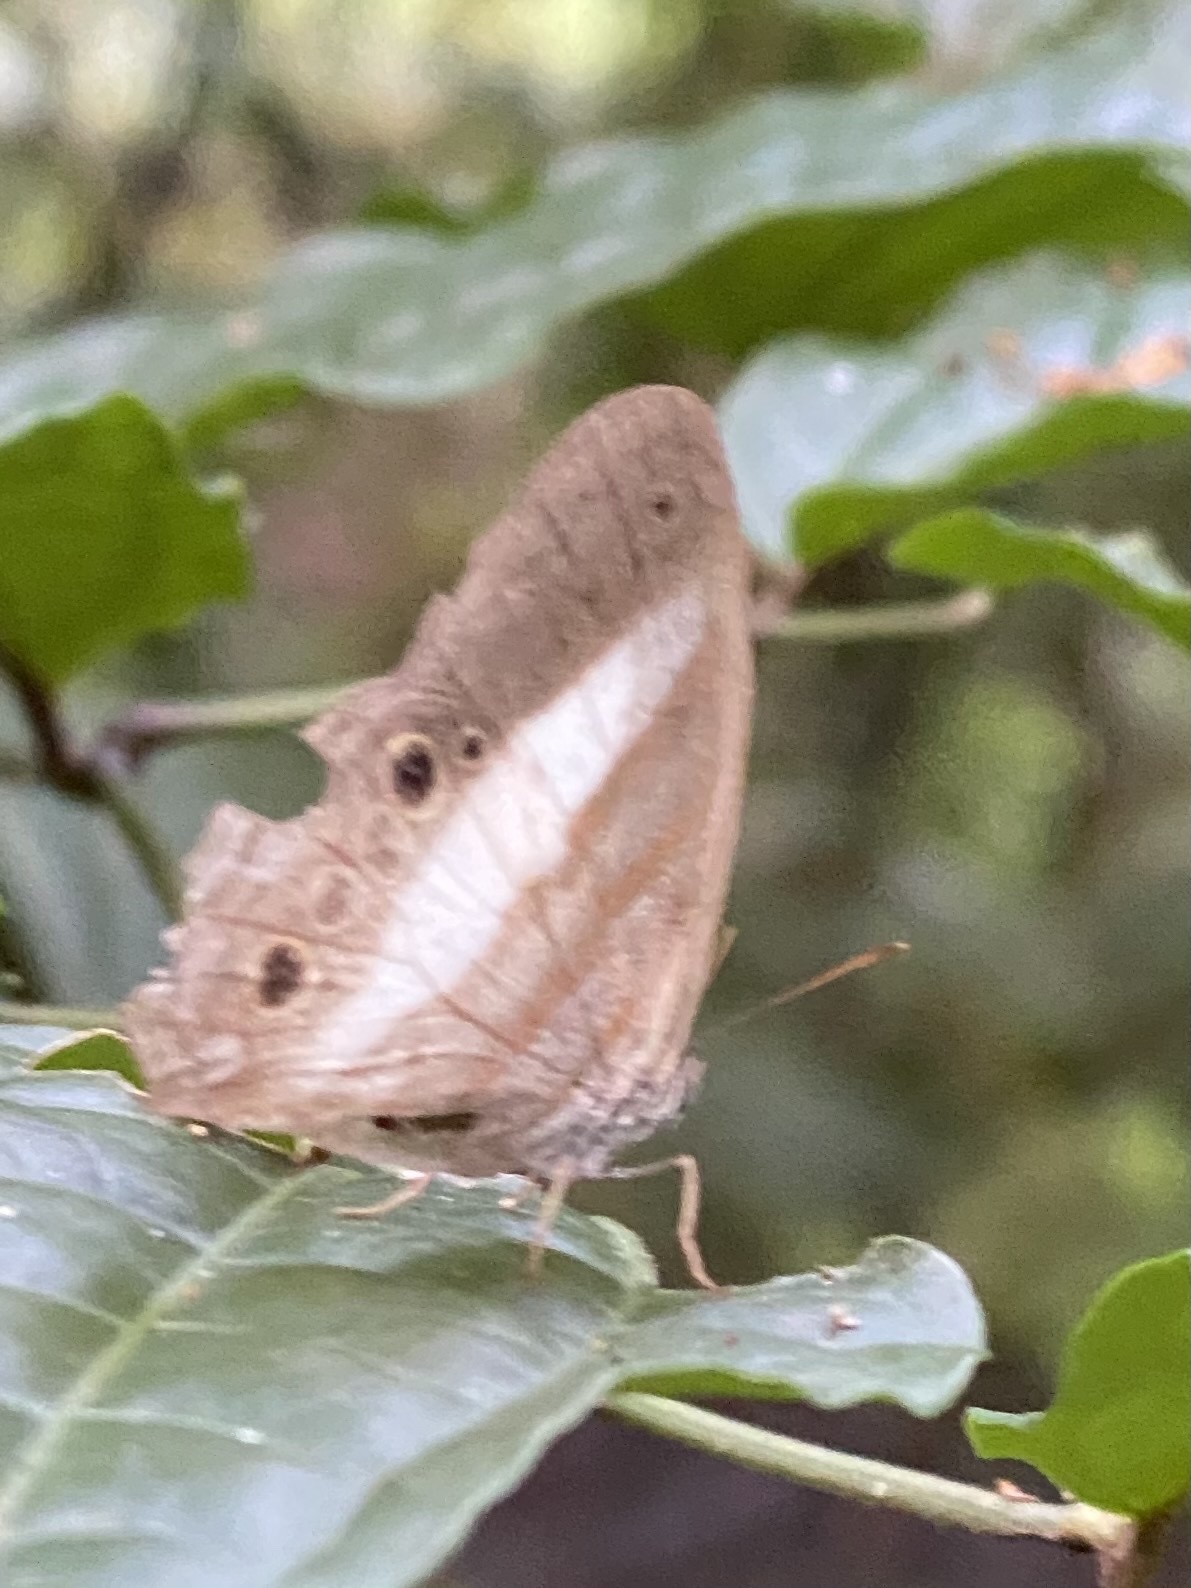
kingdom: Animalia
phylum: Arthropoda
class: Insecta
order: Lepidoptera
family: Nymphalidae
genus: Pareuptychia
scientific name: Pareuptychia metaleuca
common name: White-banded satyr
